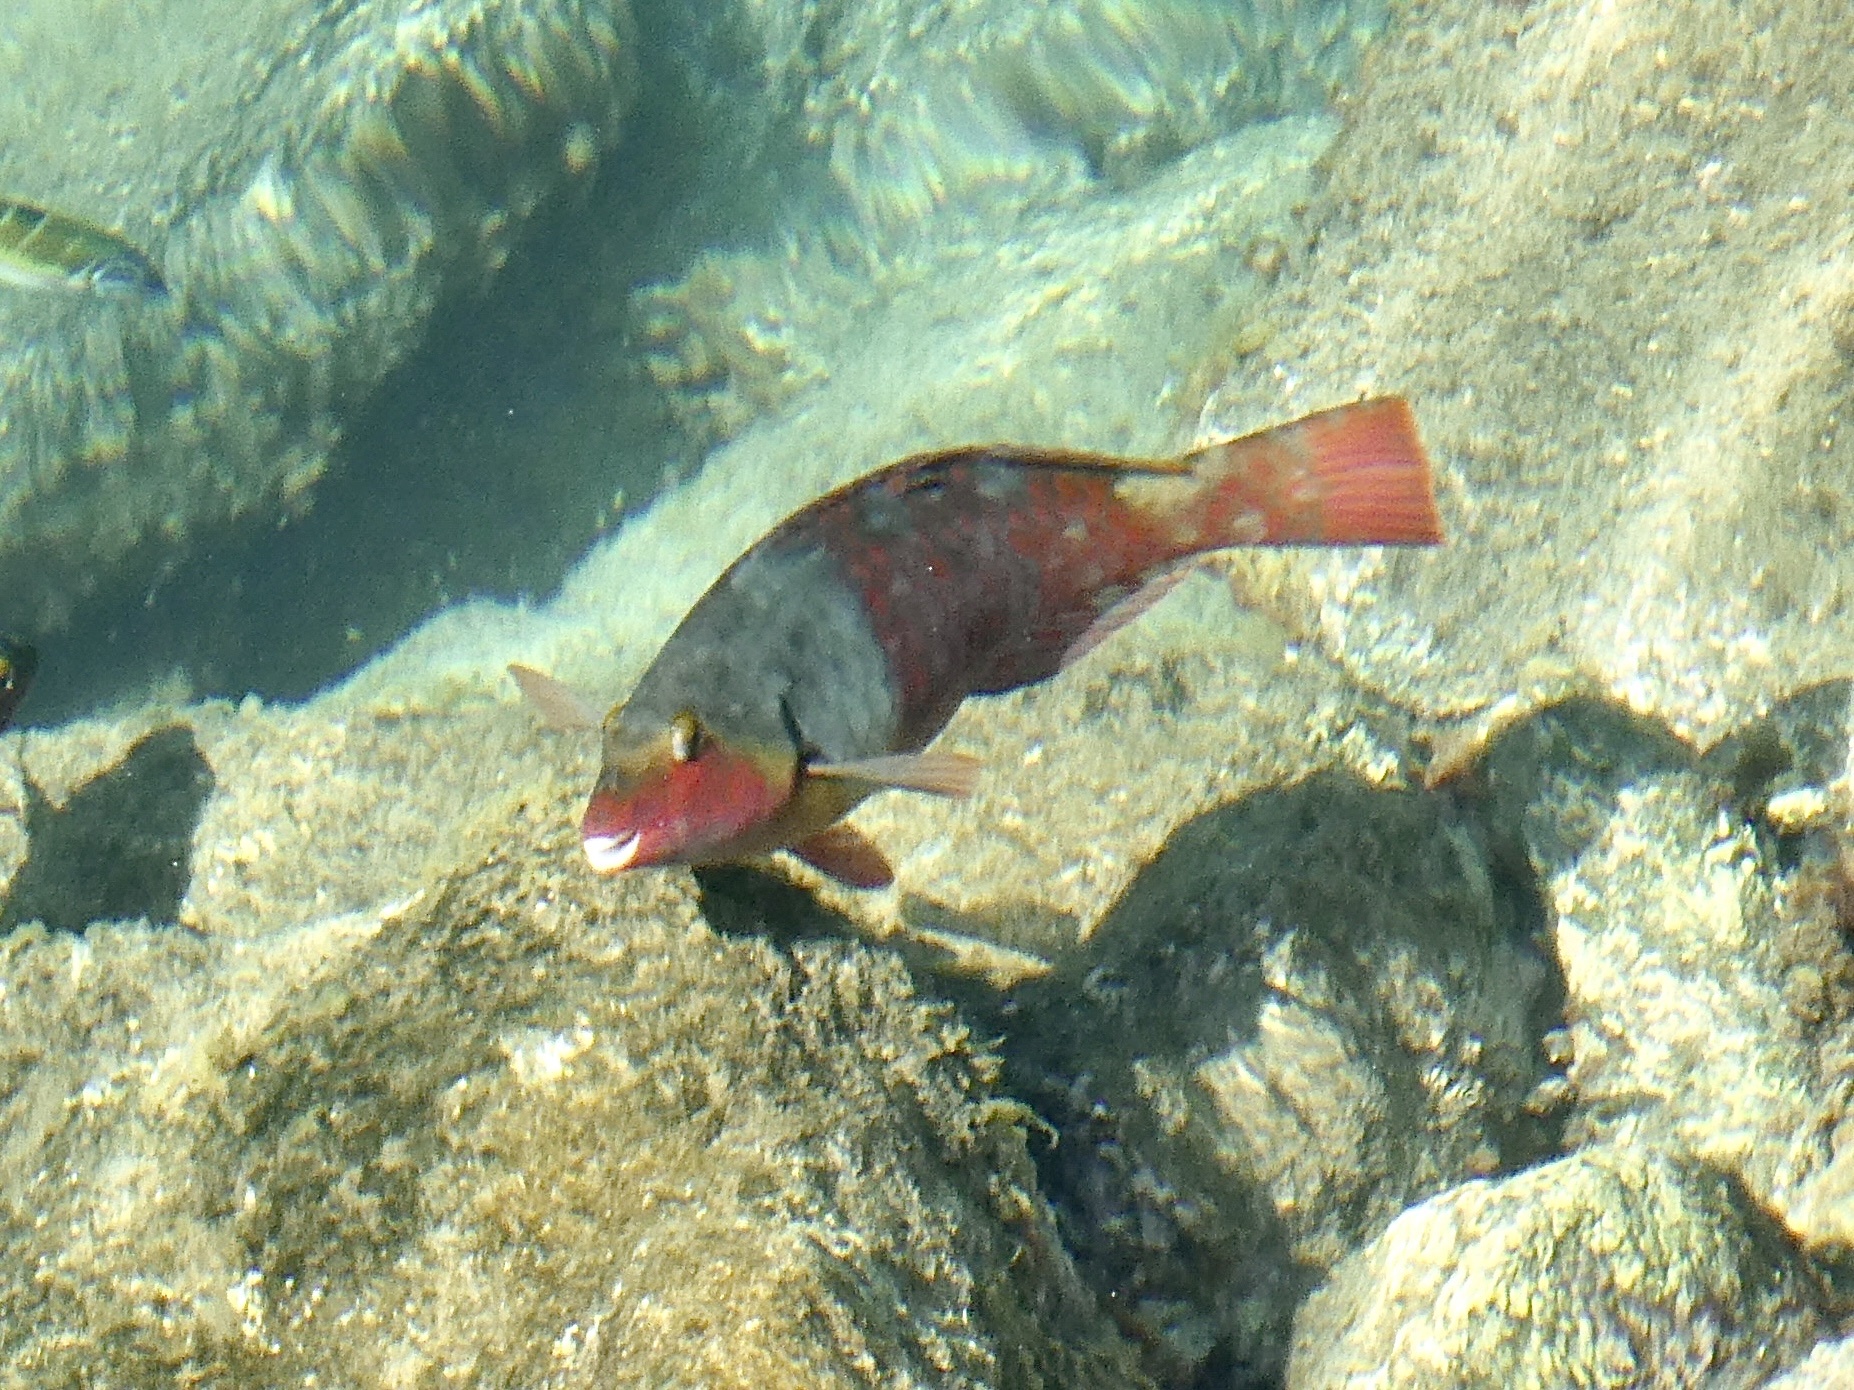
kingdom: Animalia
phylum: Chordata
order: Perciformes
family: Scaridae
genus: Sparisoma
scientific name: Sparisoma cretense
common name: Parrotfish
